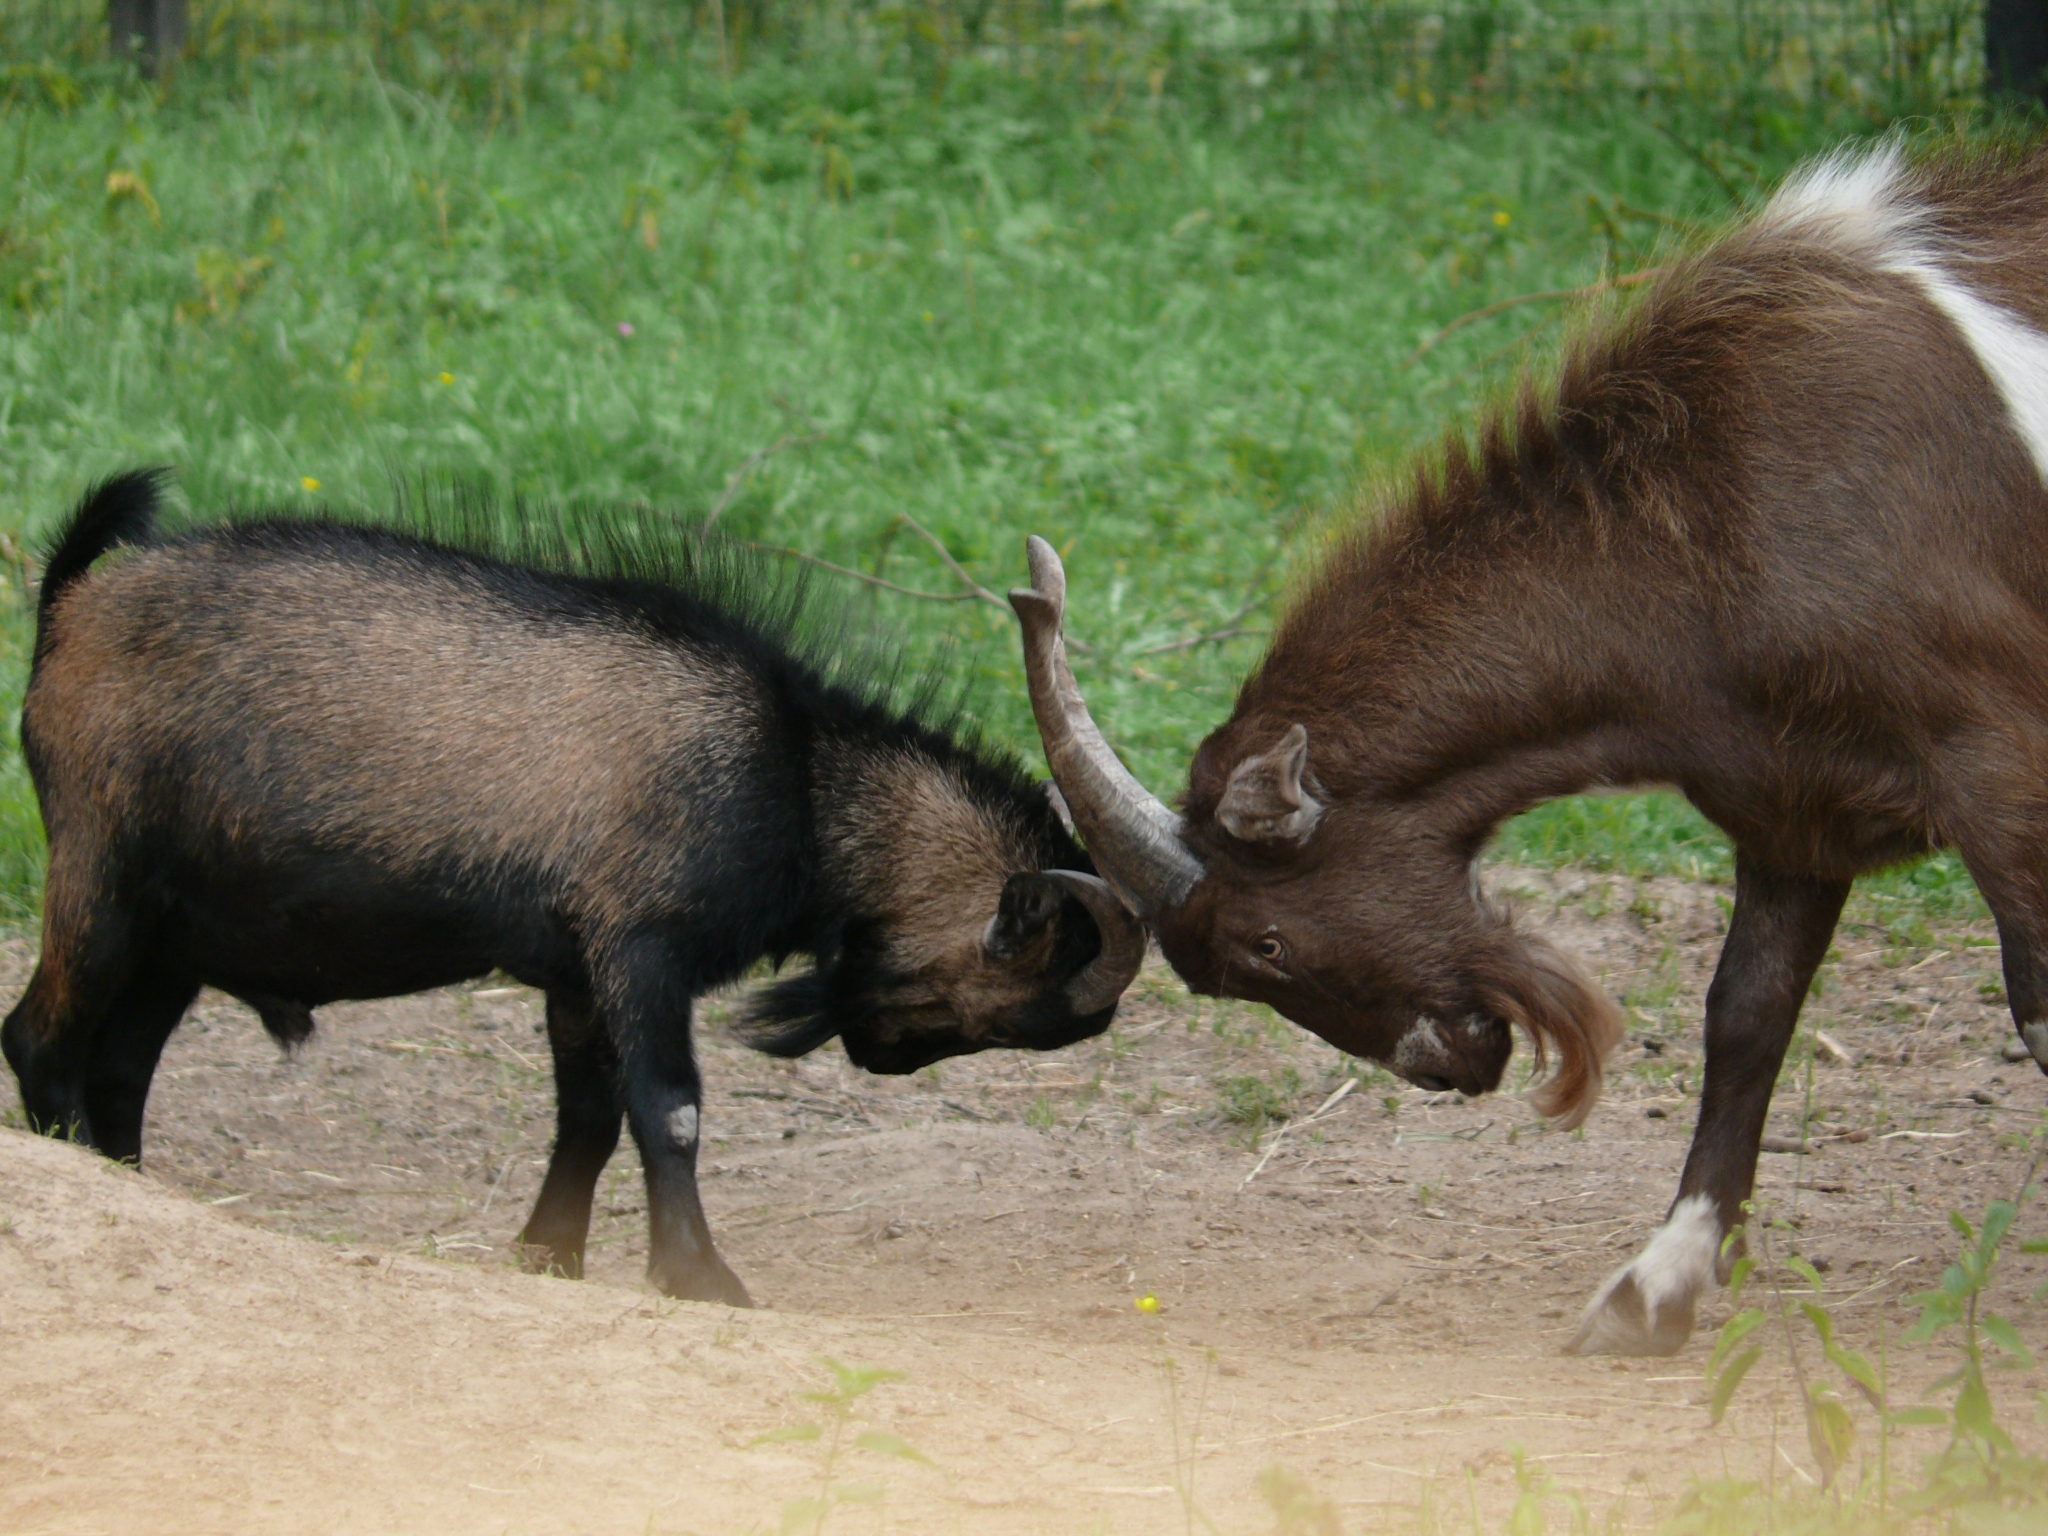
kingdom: Animalia
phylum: Chordata
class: Mammalia
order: Artiodactyla
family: Bovidae
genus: Capra
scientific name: Capra hircus
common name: Domestic goat
